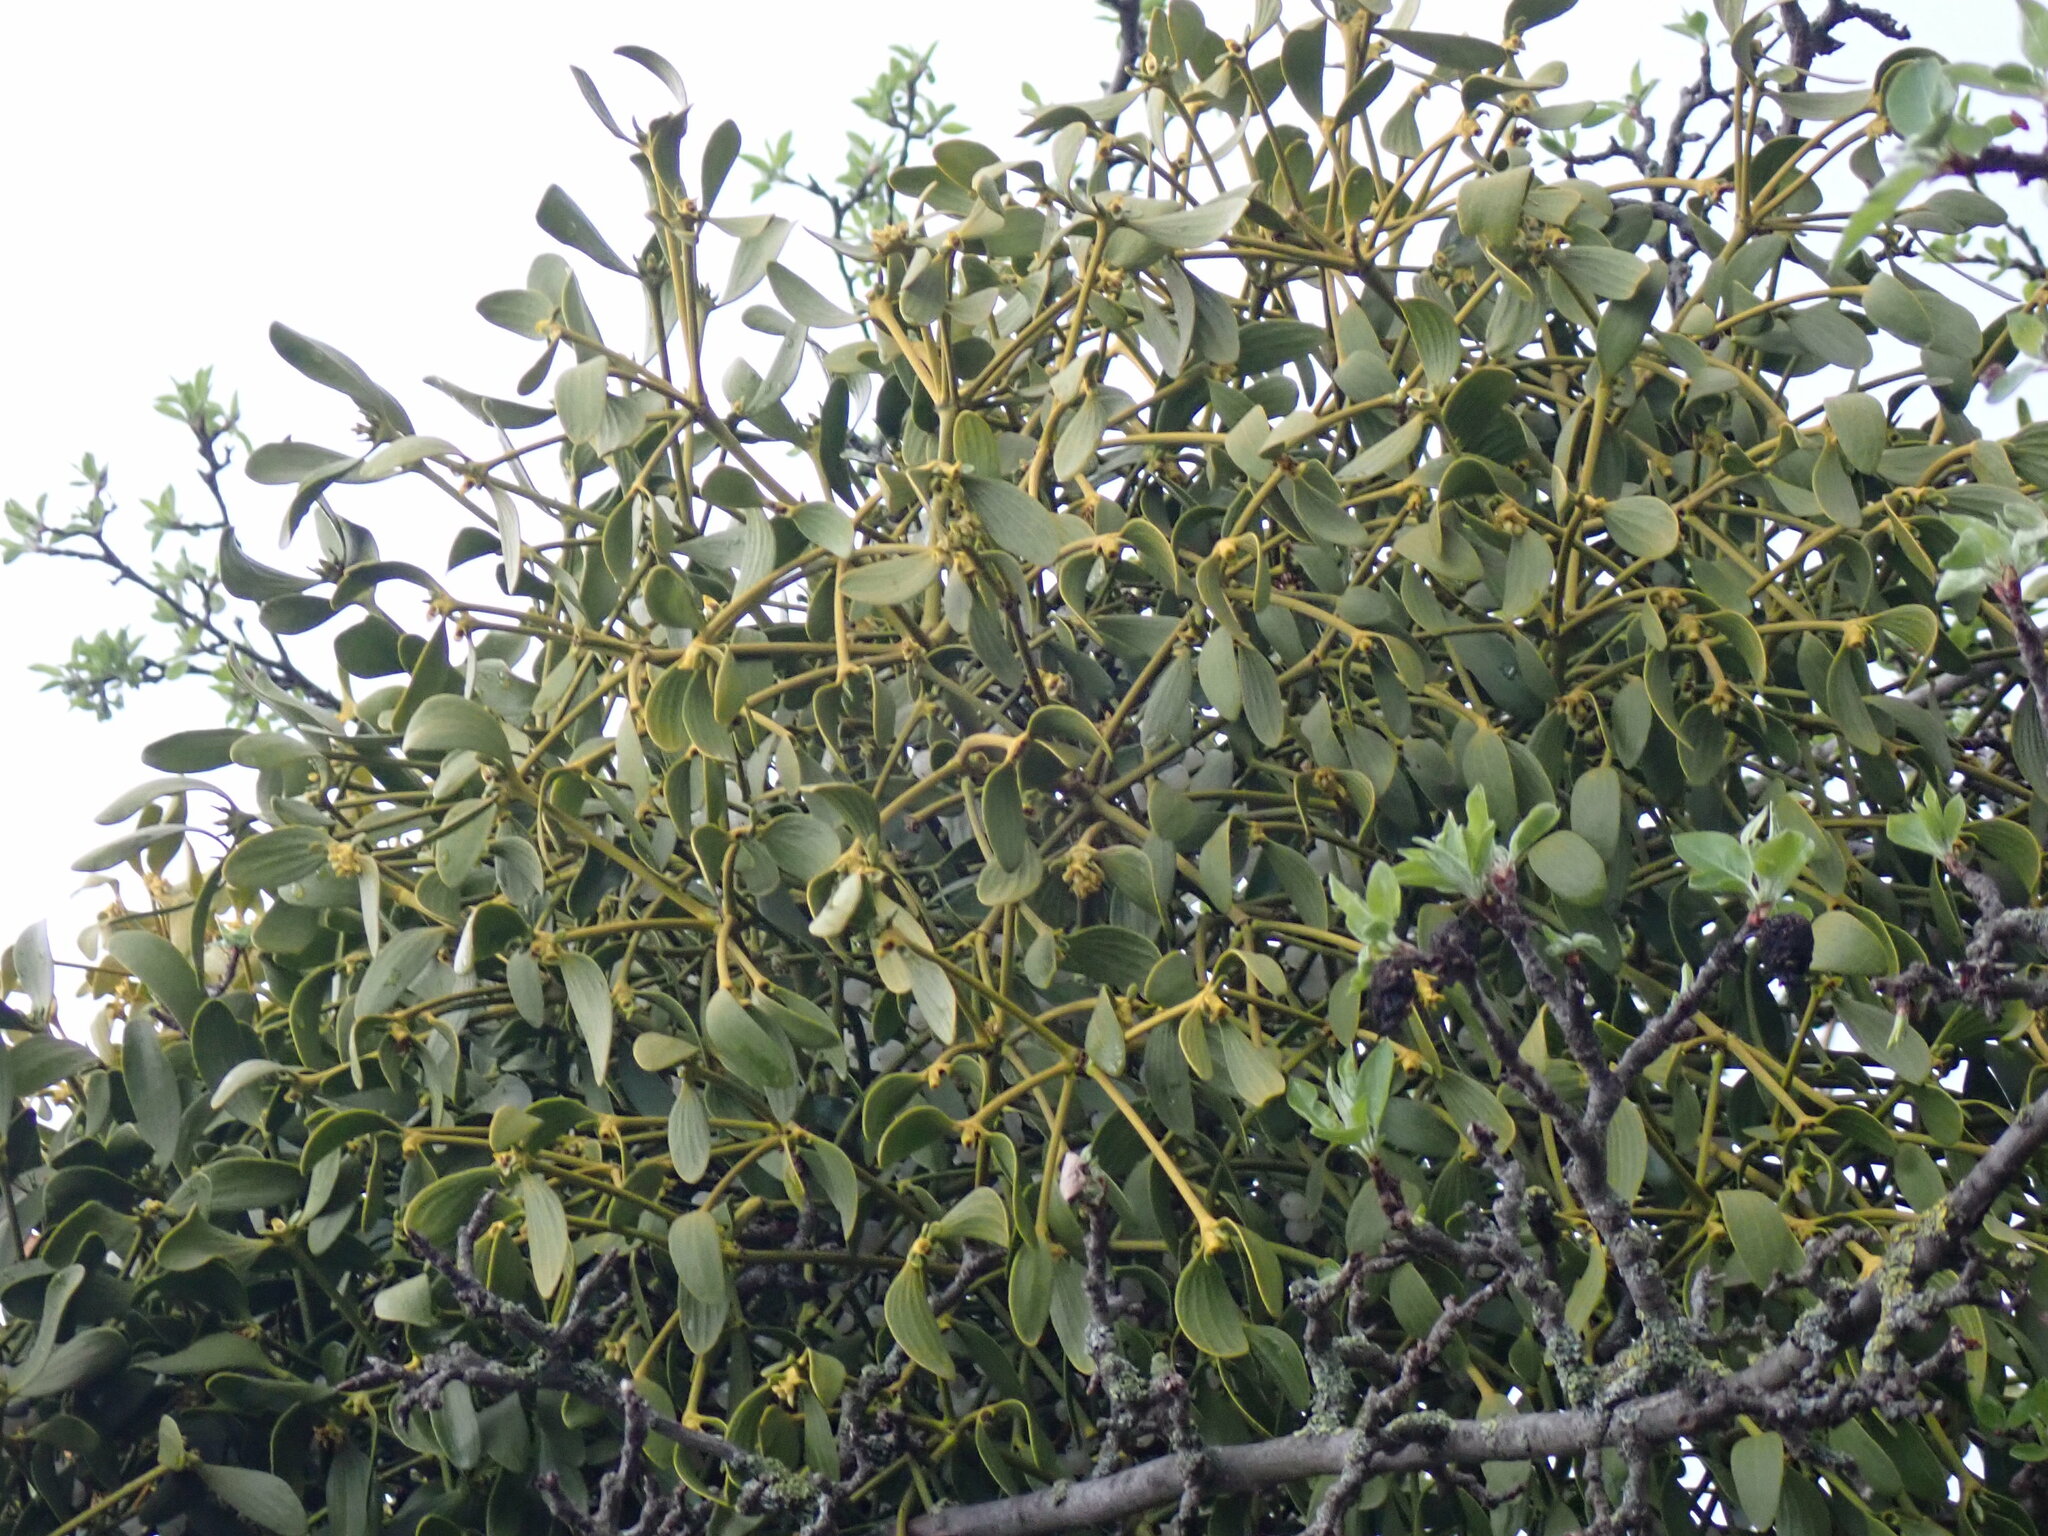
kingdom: Plantae
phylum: Tracheophyta
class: Magnoliopsida
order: Santalales
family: Viscaceae
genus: Viscum
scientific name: Viscum album
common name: Mistletoe
